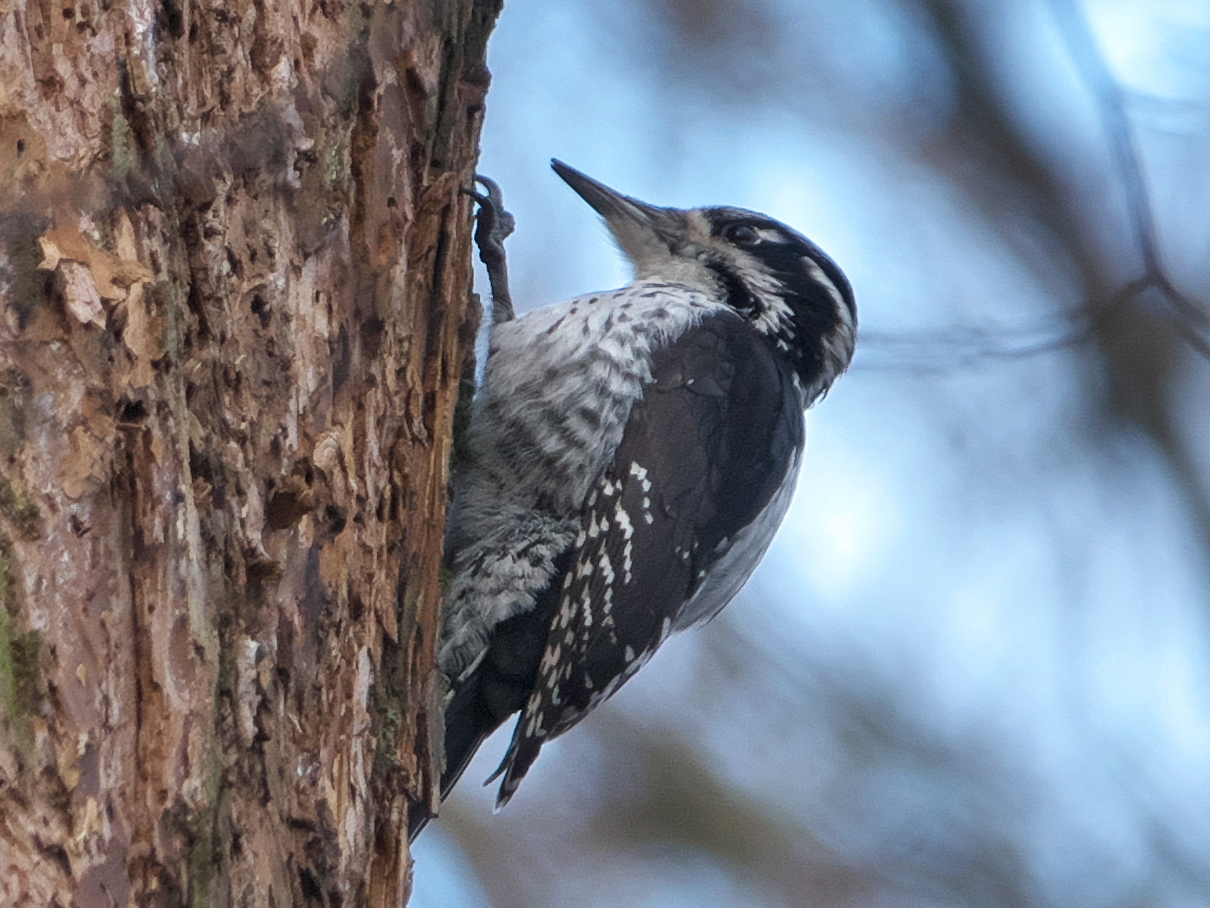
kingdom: Animalia
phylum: Chordata
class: Aves
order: Piciformes
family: Picidae
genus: Picoides
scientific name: Picoides tridactylus
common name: Eurasian three-toed woodpecker
